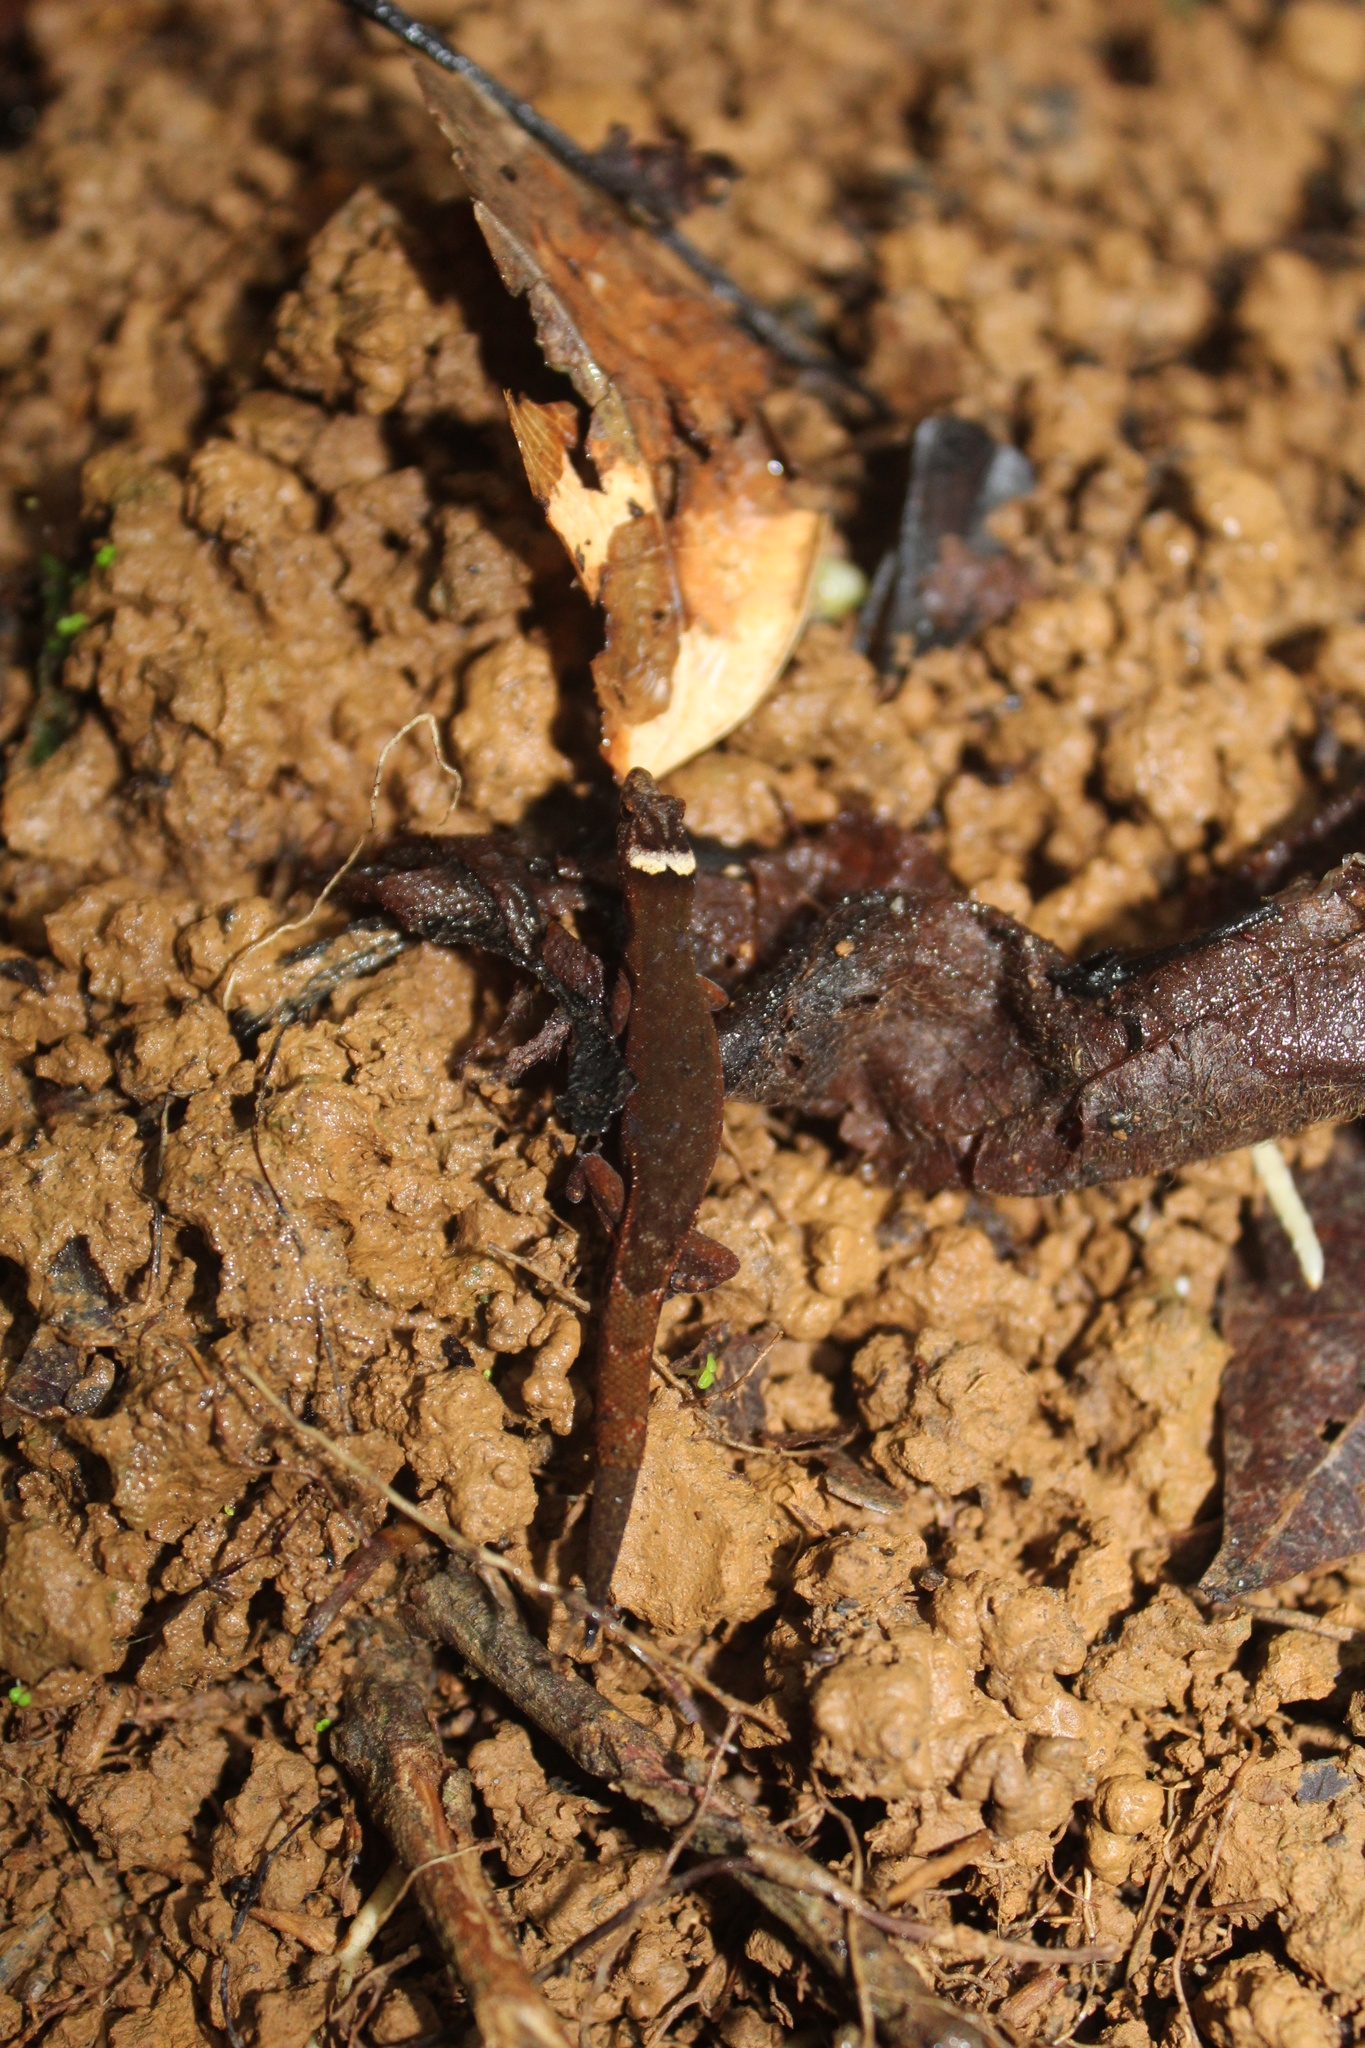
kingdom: Animalia
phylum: Chordata
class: Squamata
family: Sphaerodactylidae
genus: Lepidoblepharis
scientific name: Lepidoblepharis emberawoundule
